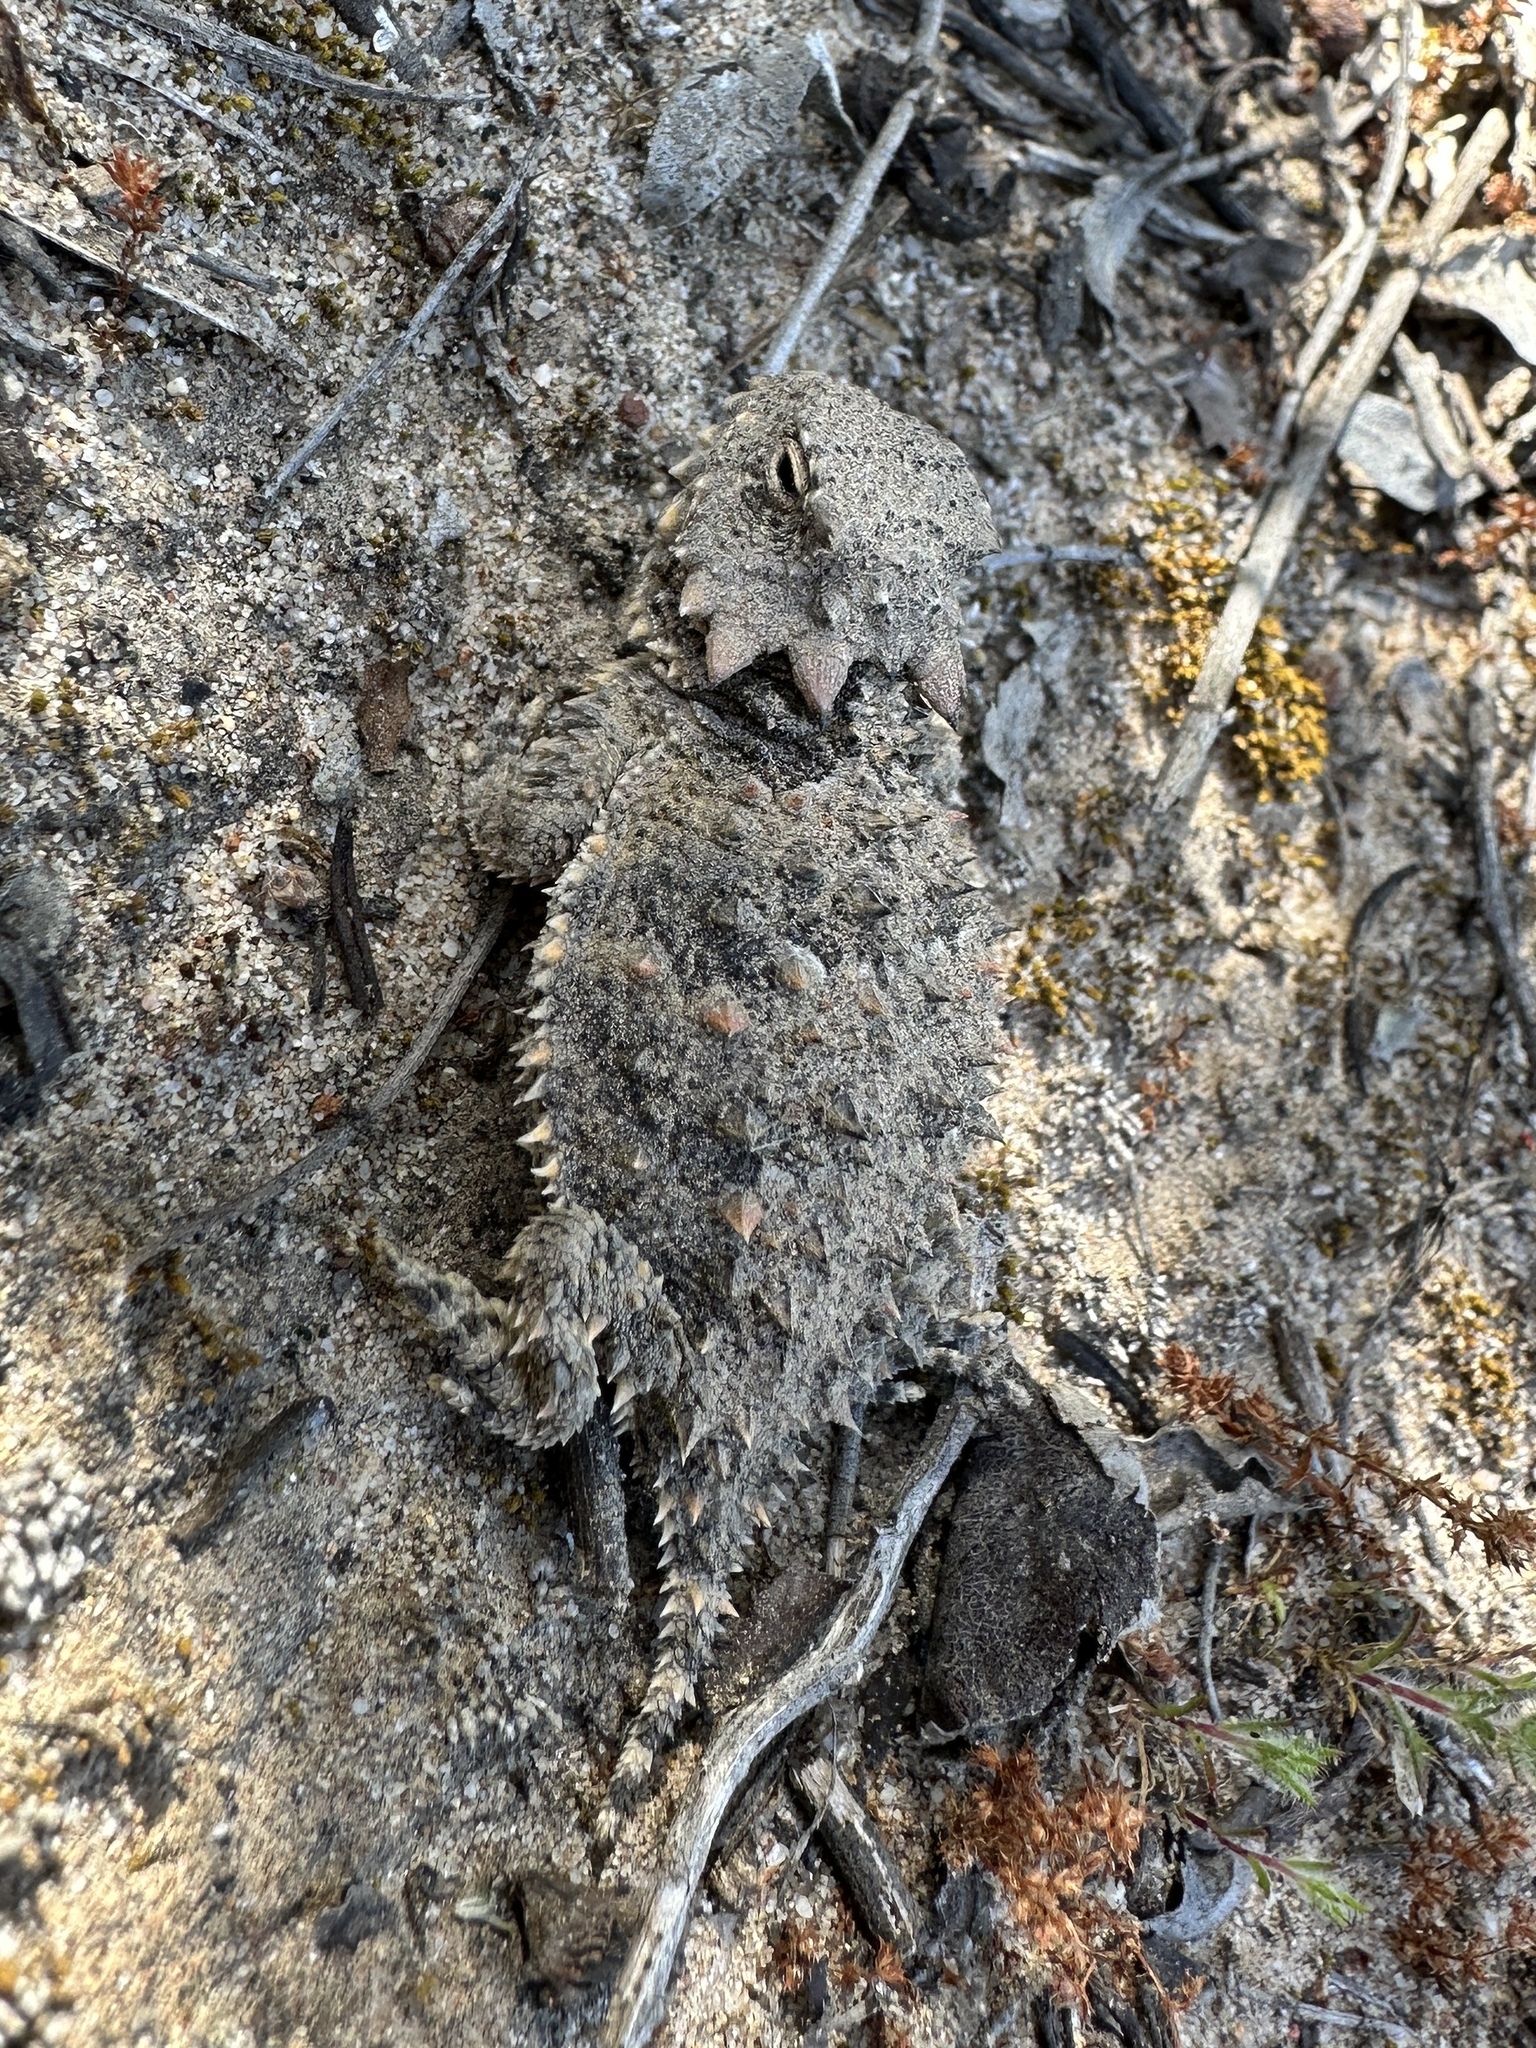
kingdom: Animalia
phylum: Chordata
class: Squamata
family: Phrynosomatidae
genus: Phrynosoma
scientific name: Phrynosoma blainvillii
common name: San diego horned lizard
